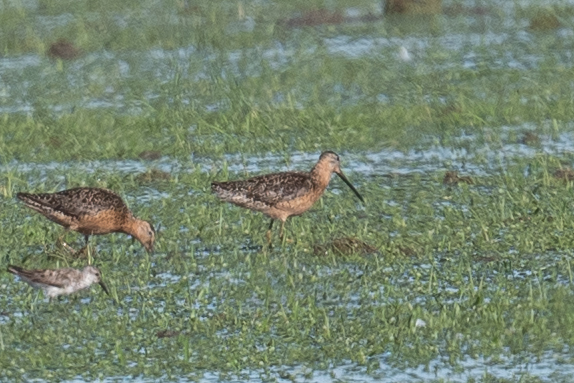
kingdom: Animalia
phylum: Chordata
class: Aves
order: Charadriiformes
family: Scolopacidae
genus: Limnodromus
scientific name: Limnodromus scolopaceus
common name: Long-billed dowitcher
